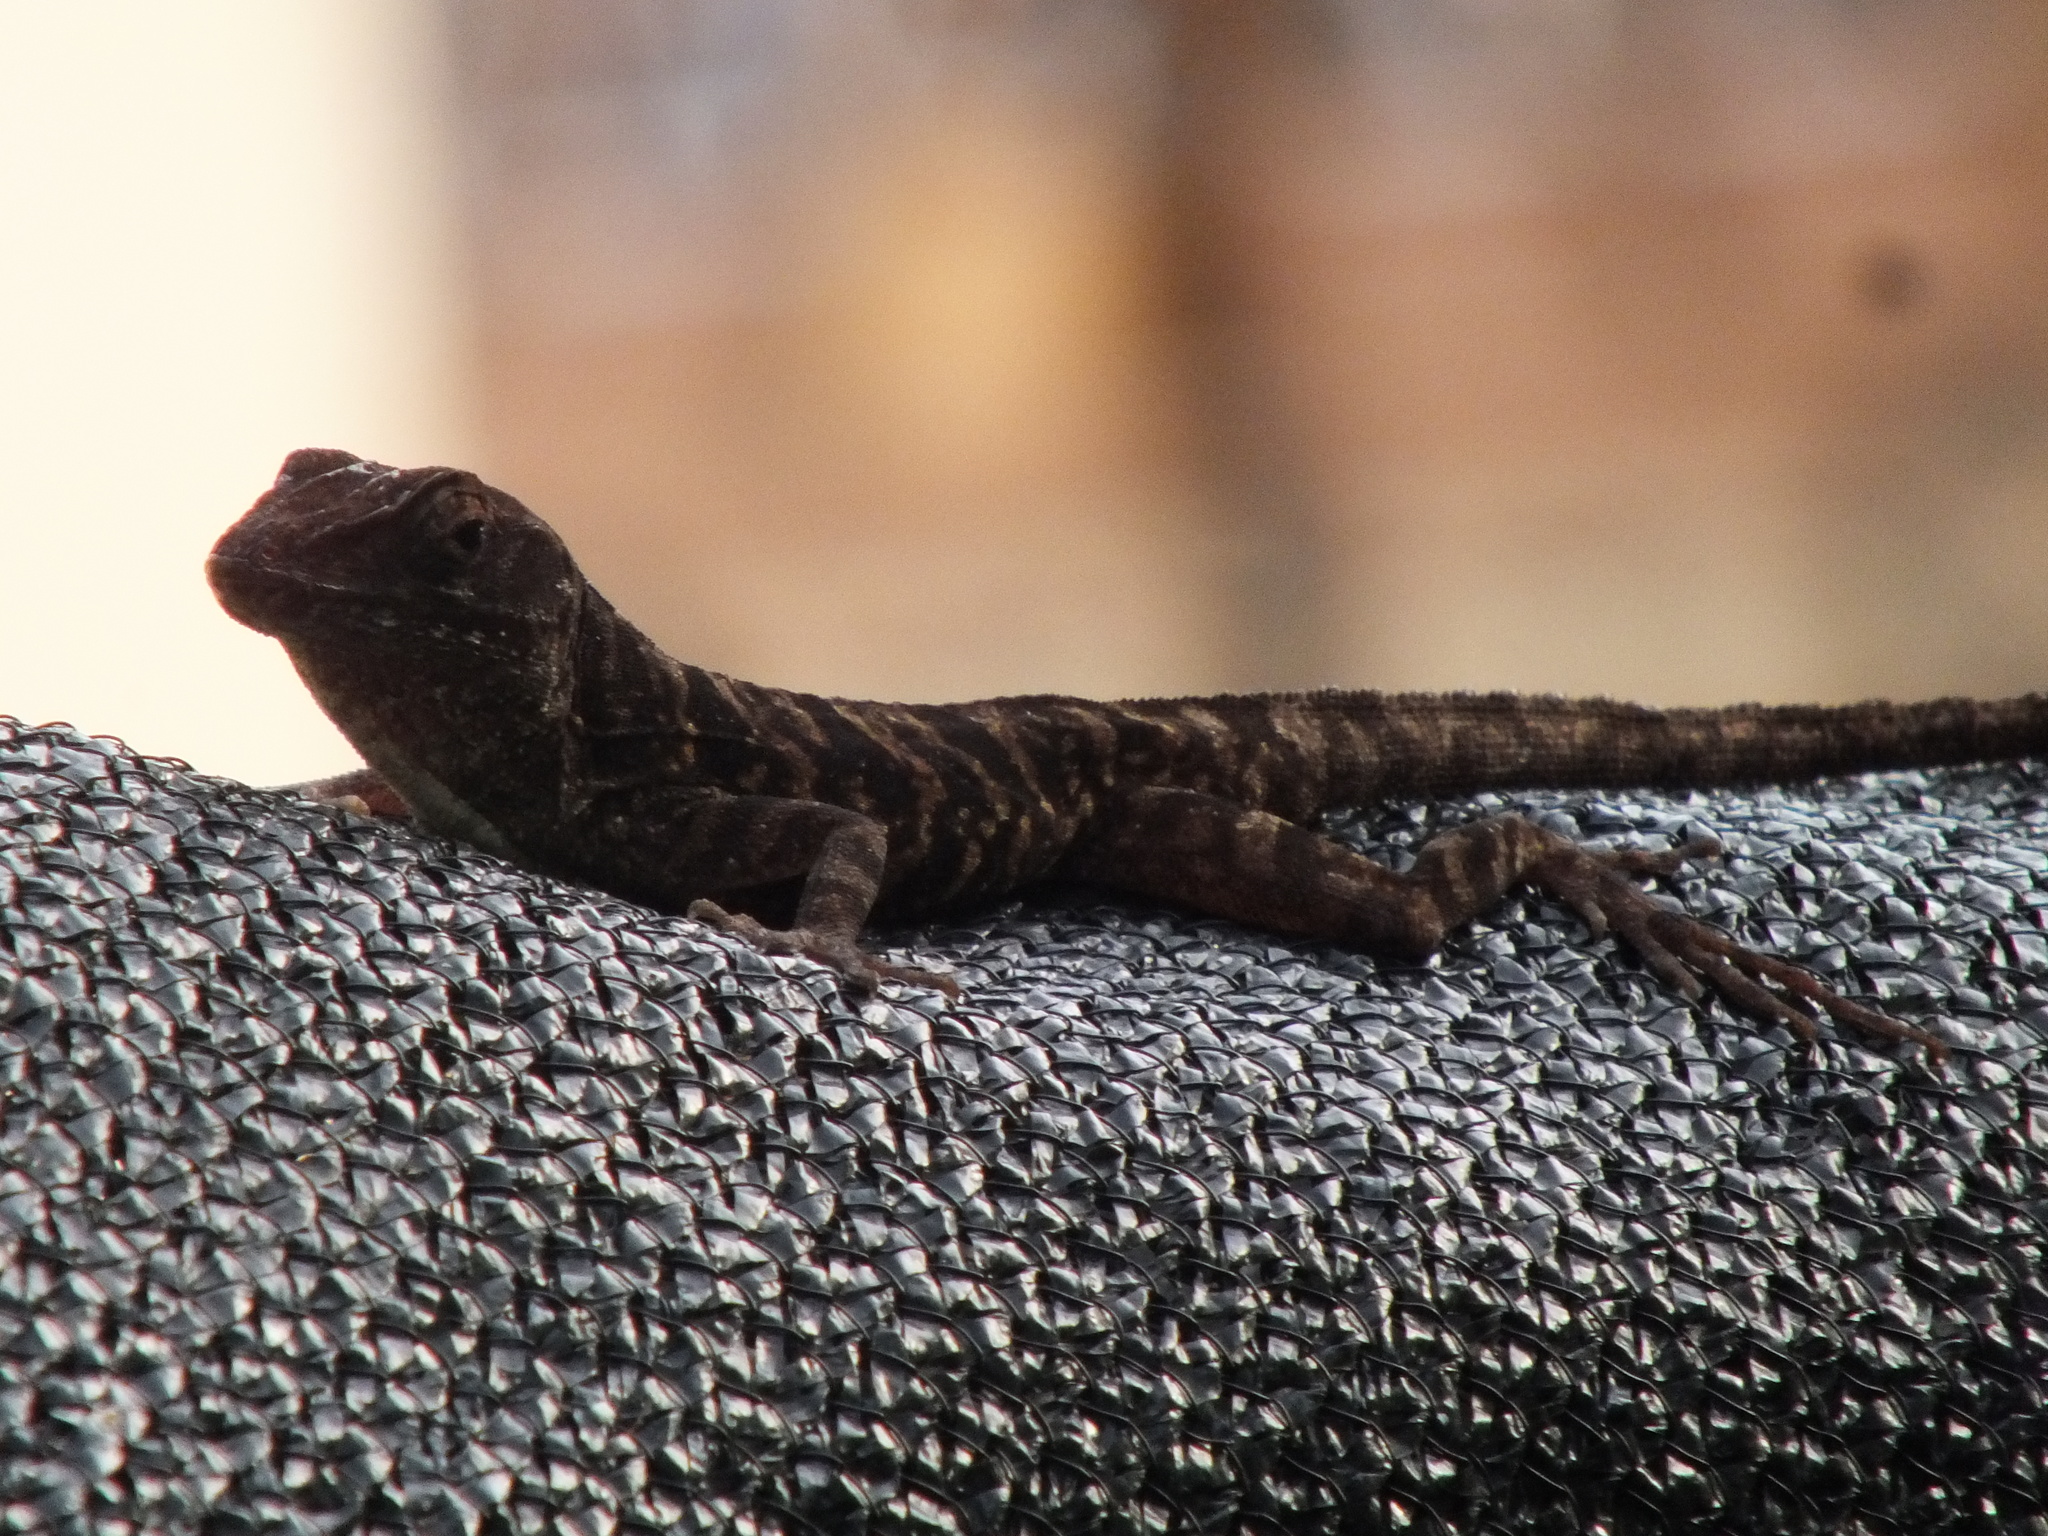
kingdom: Animalia
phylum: Chordata
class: Squamata
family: Dactyloidae
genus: Anolis
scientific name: Anolis lineatopus
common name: Stripefoot anole
